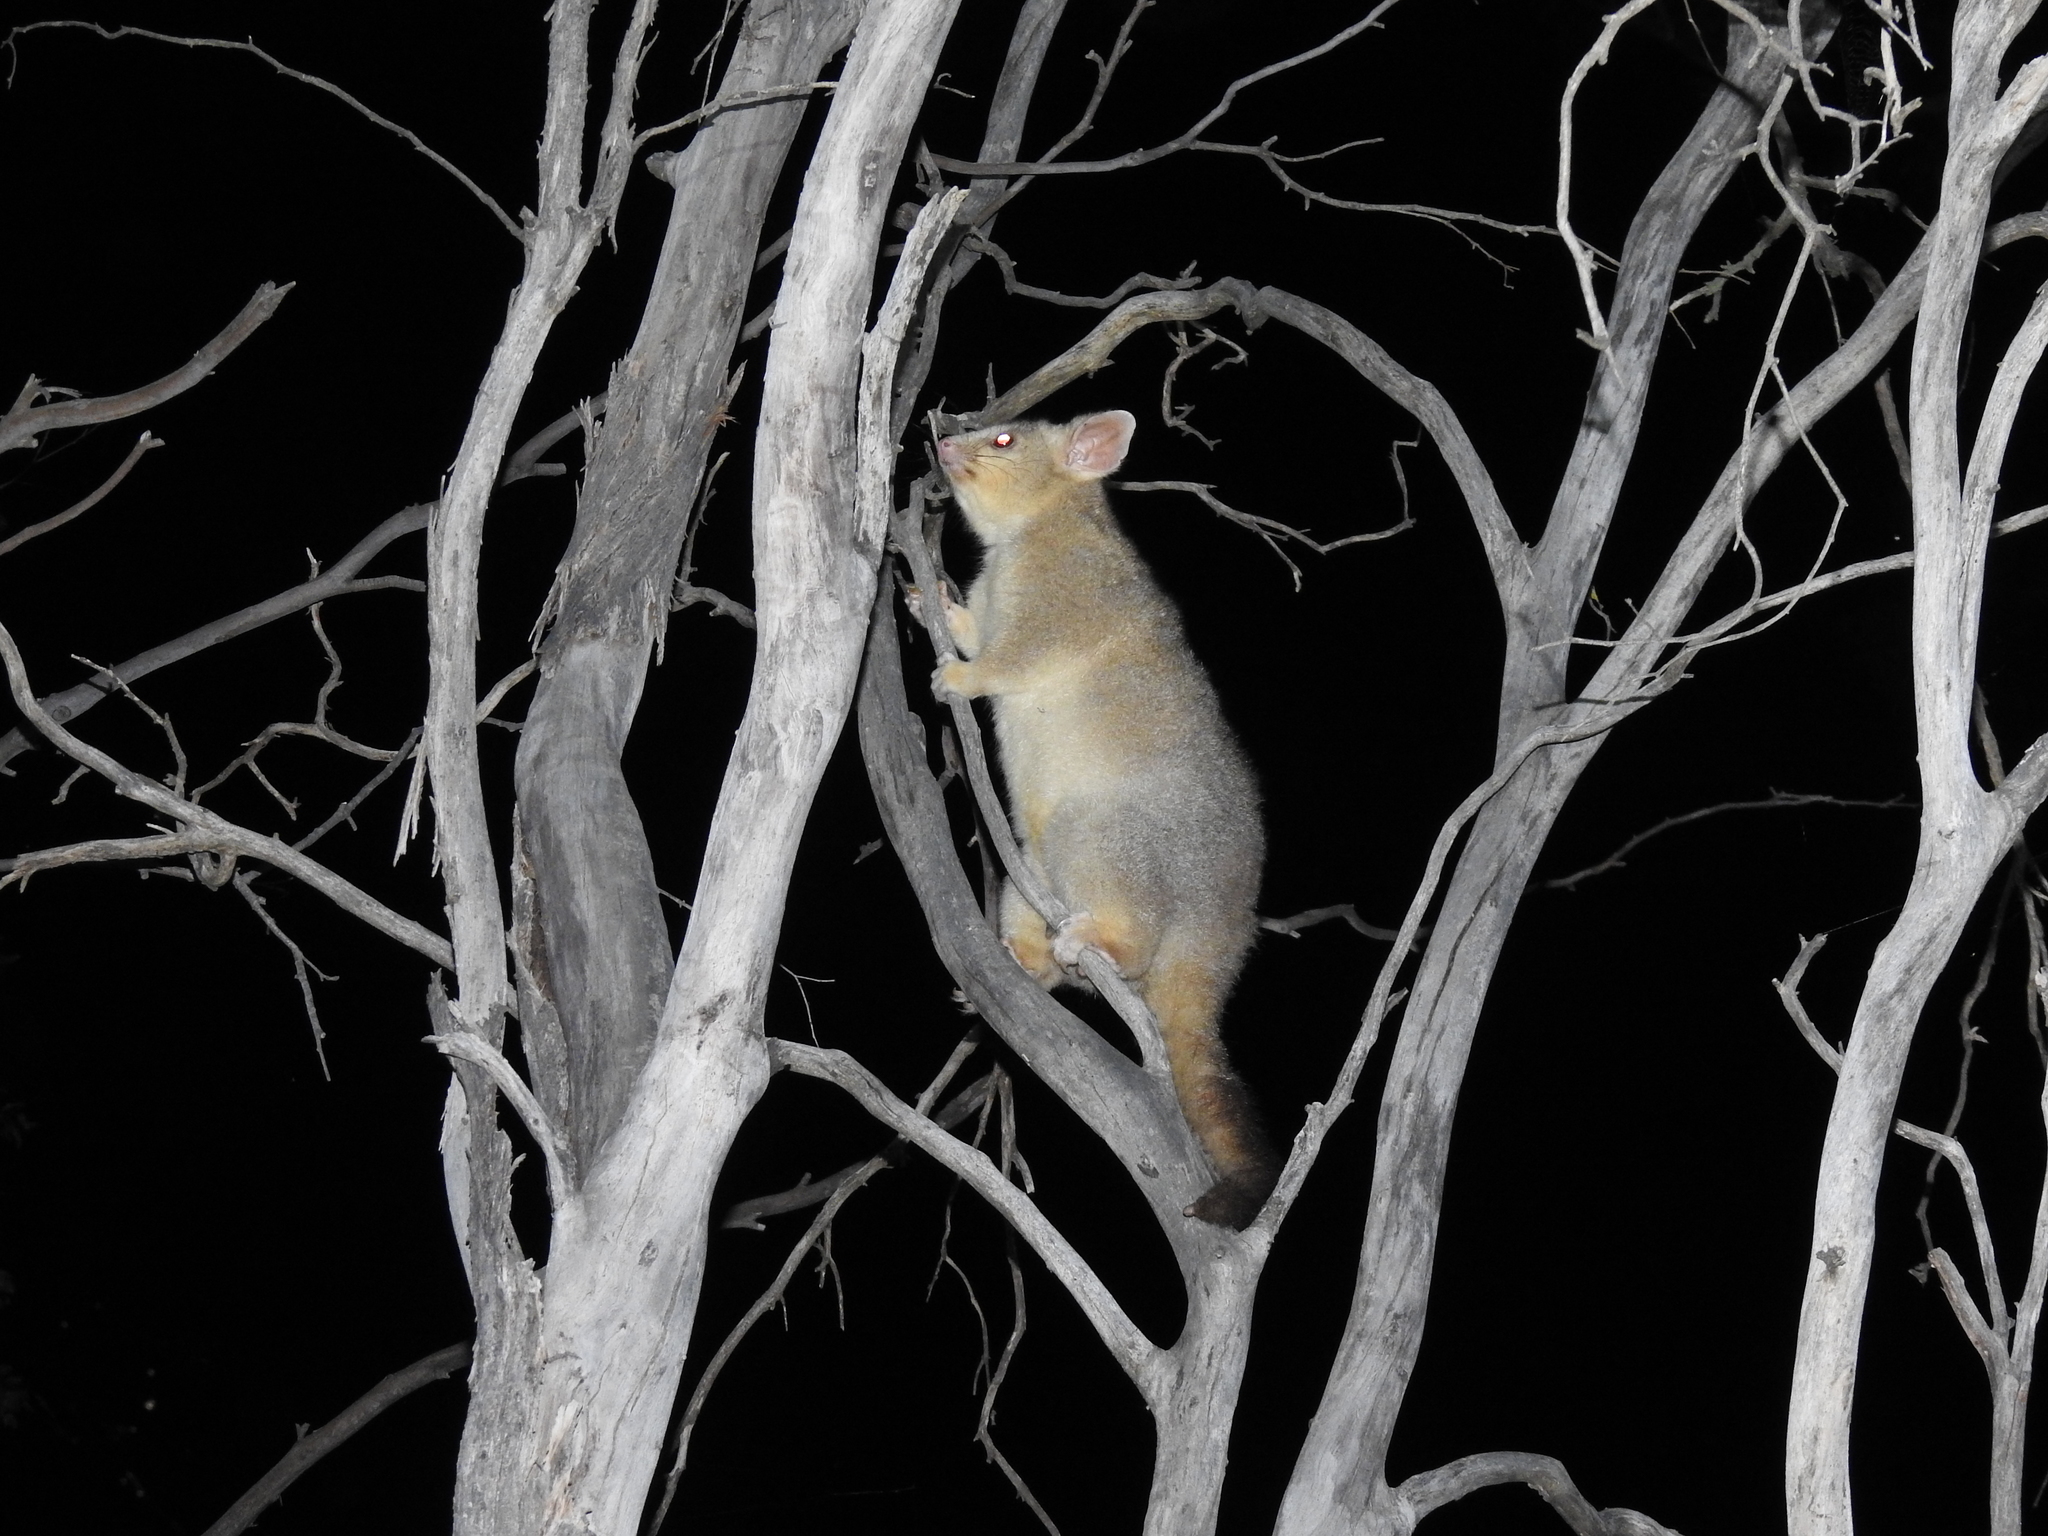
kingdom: Animalia
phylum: Chordata
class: Mammalia
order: Diprotodontia
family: Phalangeridae
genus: Trichosurus
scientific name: Trichosurus vulpecula
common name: Common brushtail
